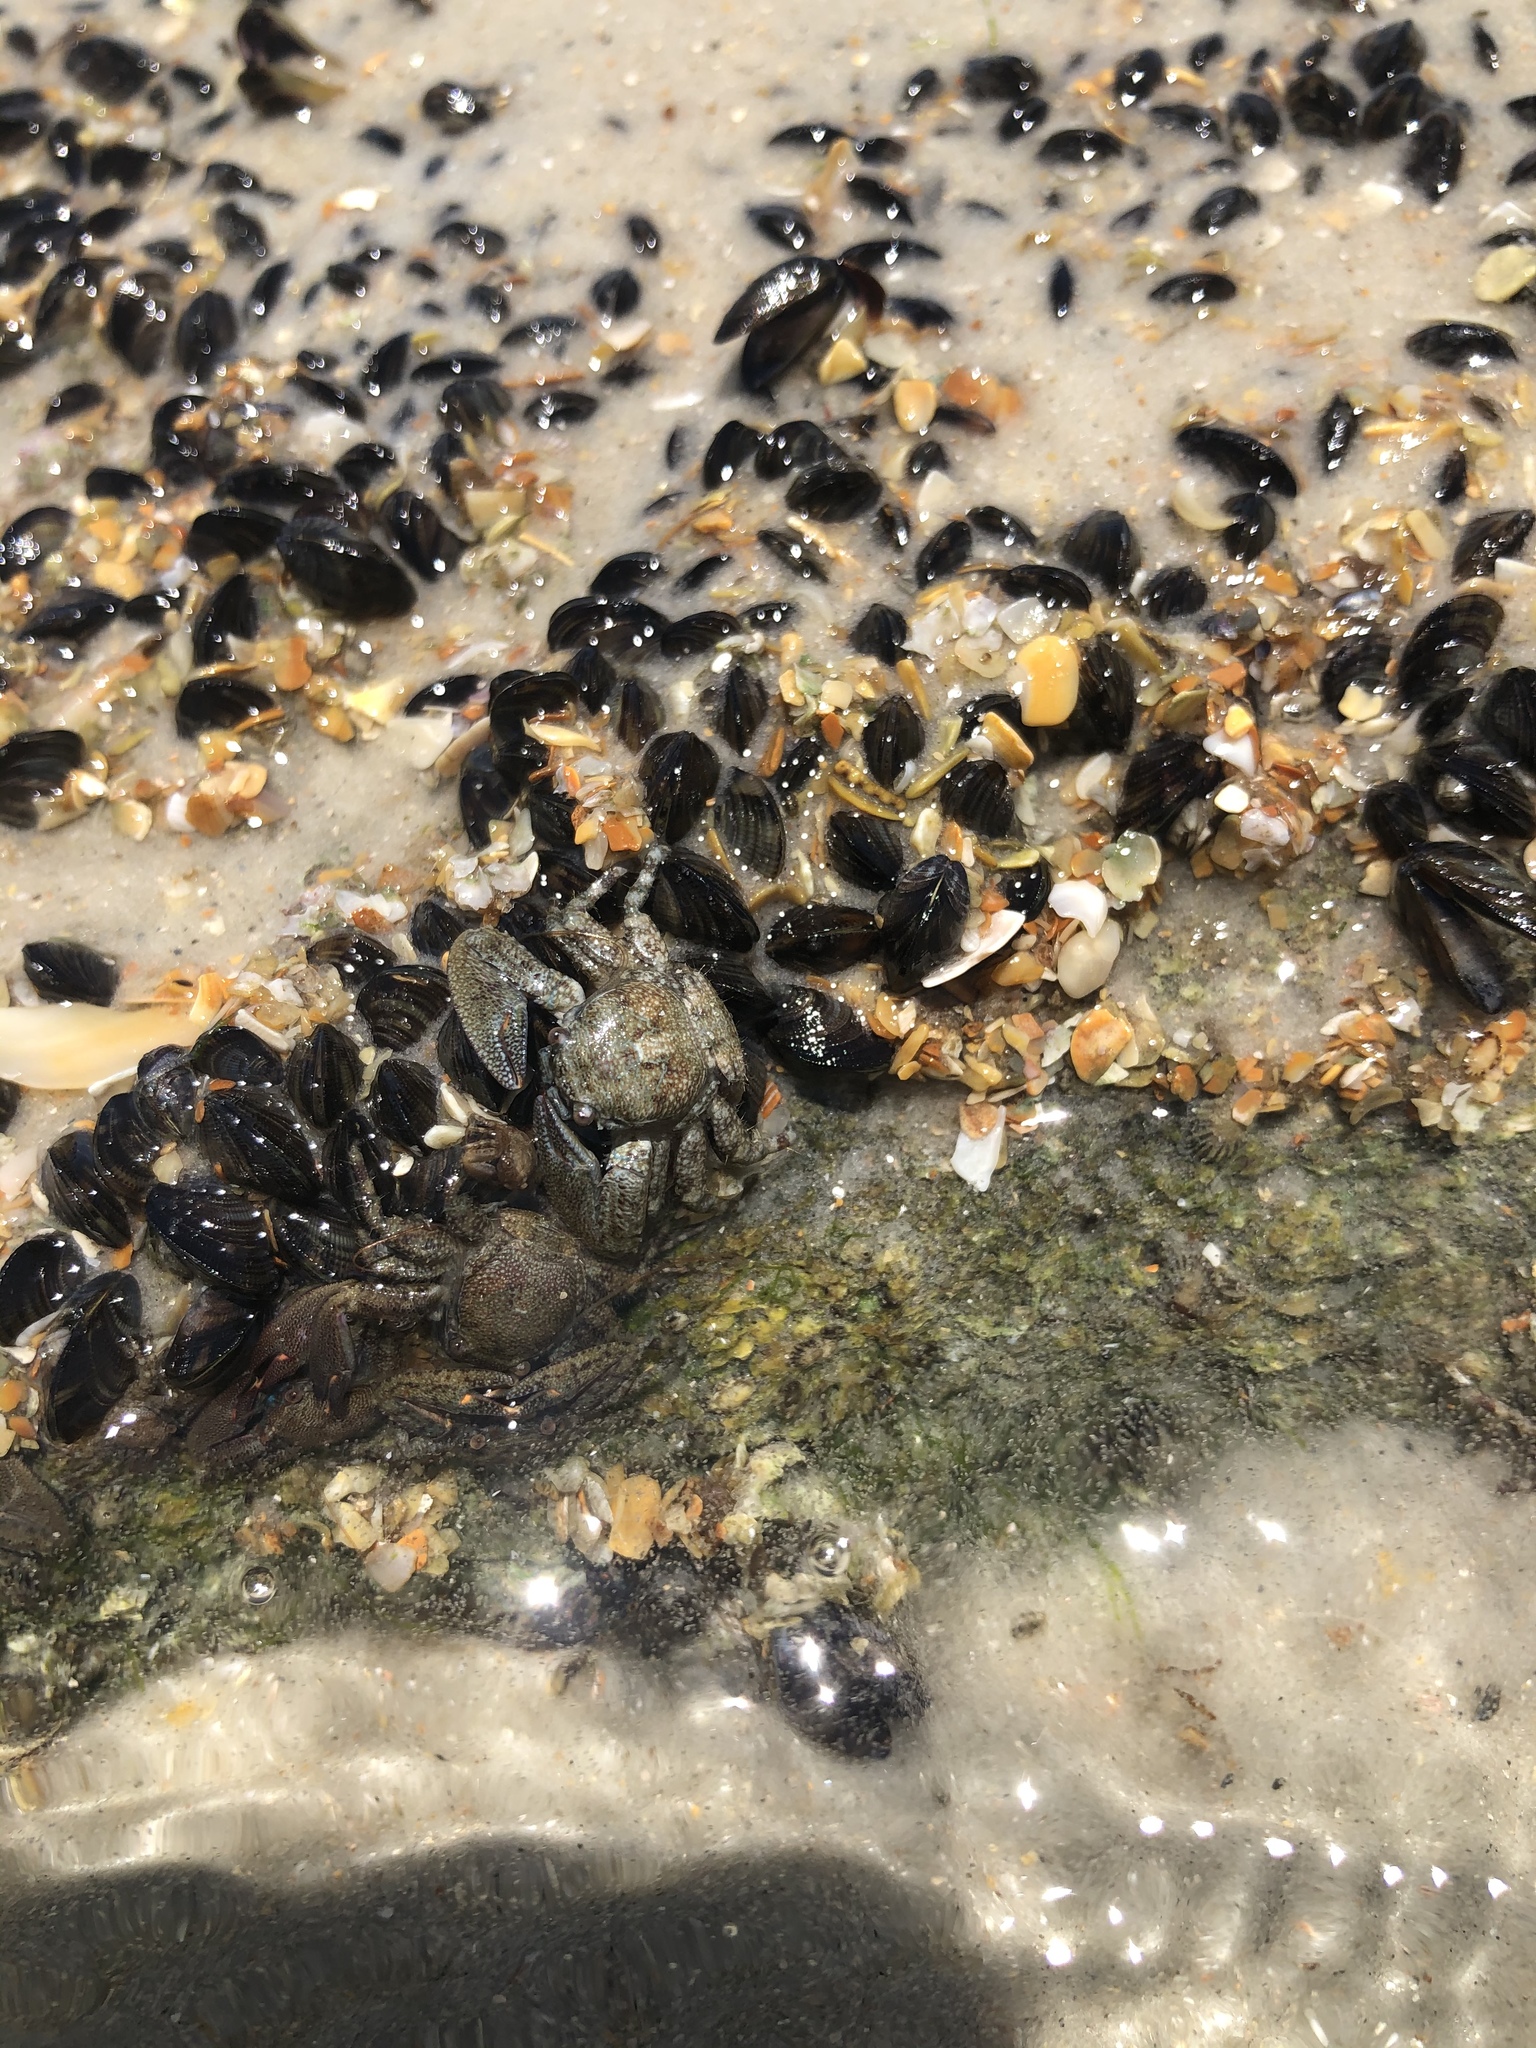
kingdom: Animalia
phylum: Arthropoda
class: Malacostraca
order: Decapoda
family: Porcellanidae
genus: Petrolisthes
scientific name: Petrolisthes armatus
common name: Green porcelain crab
